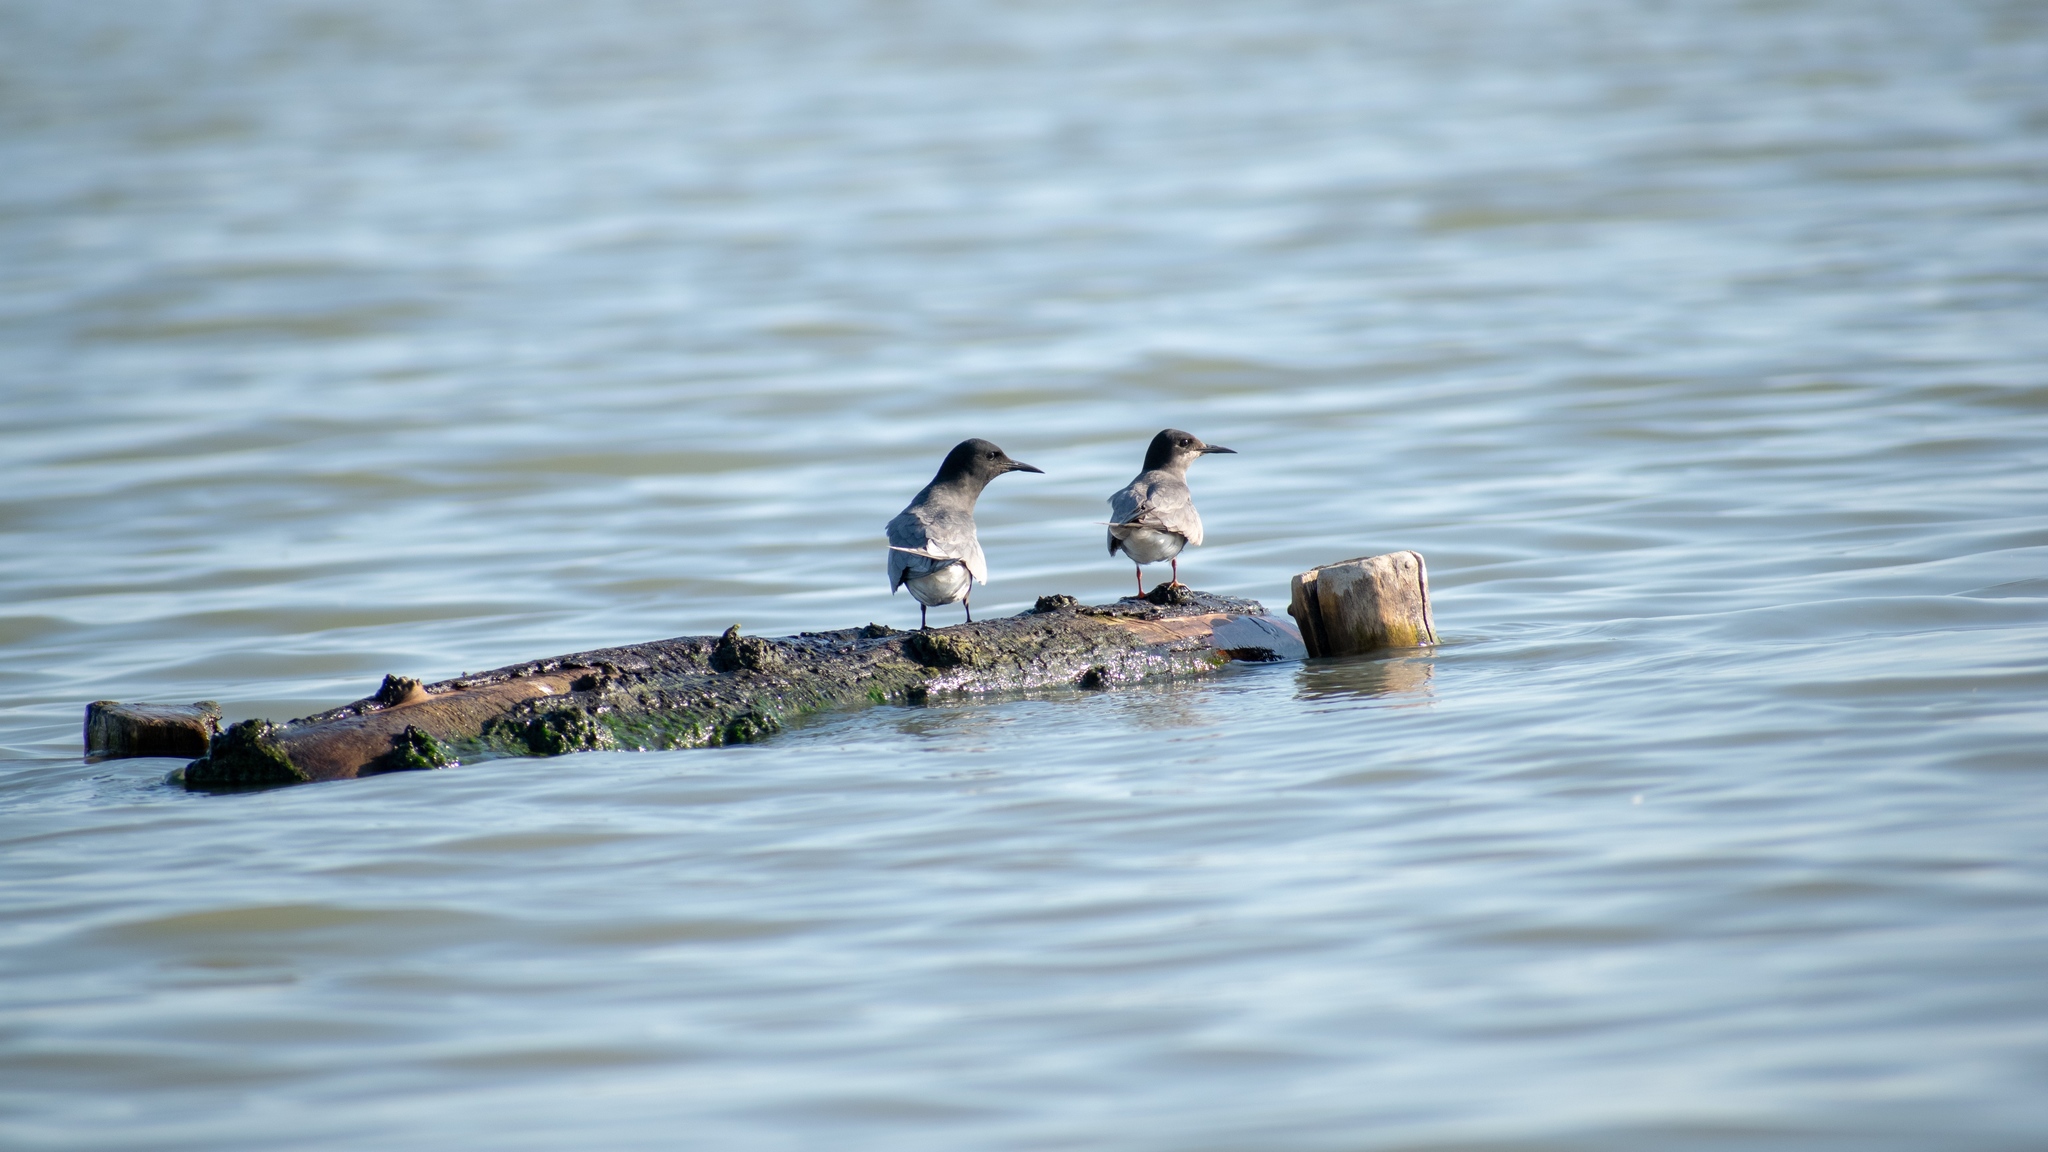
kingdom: Animalia
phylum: Chordata
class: Aves
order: Charadriiformes
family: Laridae
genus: Chlidonias
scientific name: Chlidonias niger
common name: Black tern
